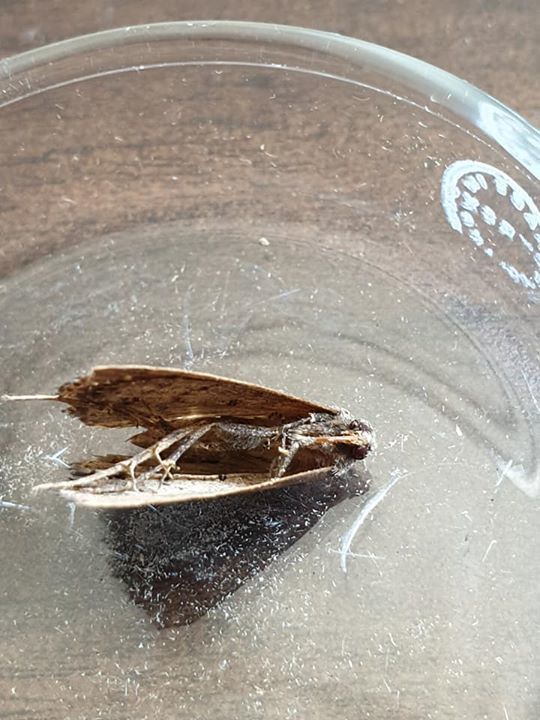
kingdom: Animalia
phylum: Arthropoda
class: Insecta
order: Lepidoptera
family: Erebidae
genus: Rhapsa
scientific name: Rhapsa scotosialis
